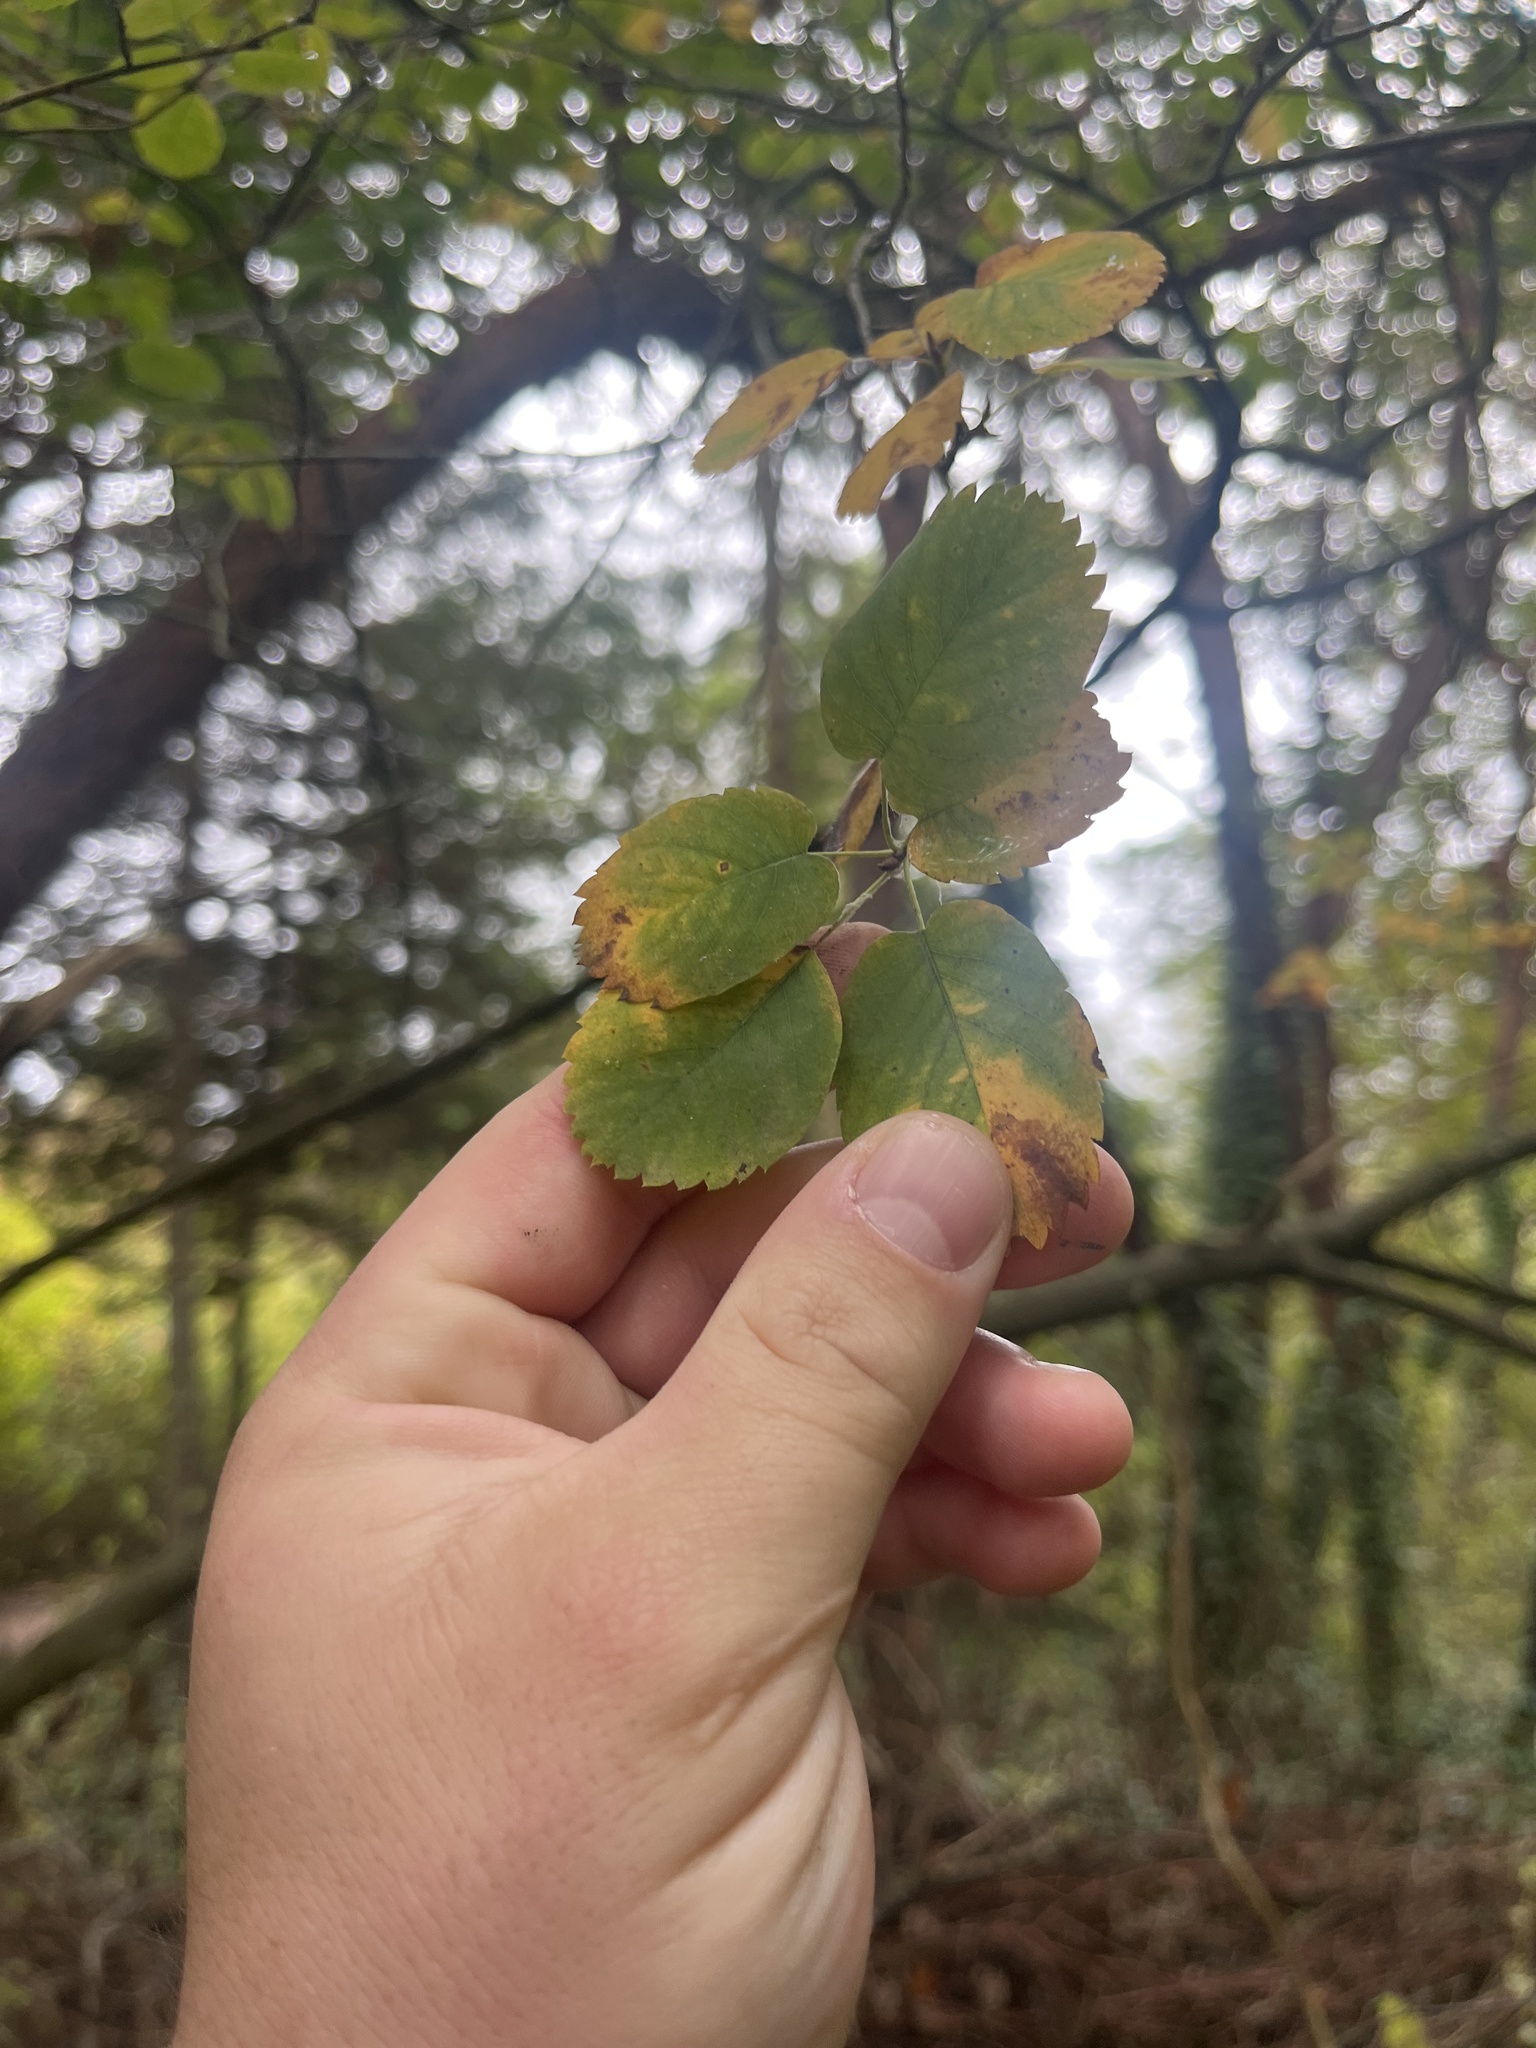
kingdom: Plantae
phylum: Tracheophyta
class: Magnoliopsida
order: Rosales
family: Rosaceae
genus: Amelanchier
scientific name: Amelanchier alnifolia
